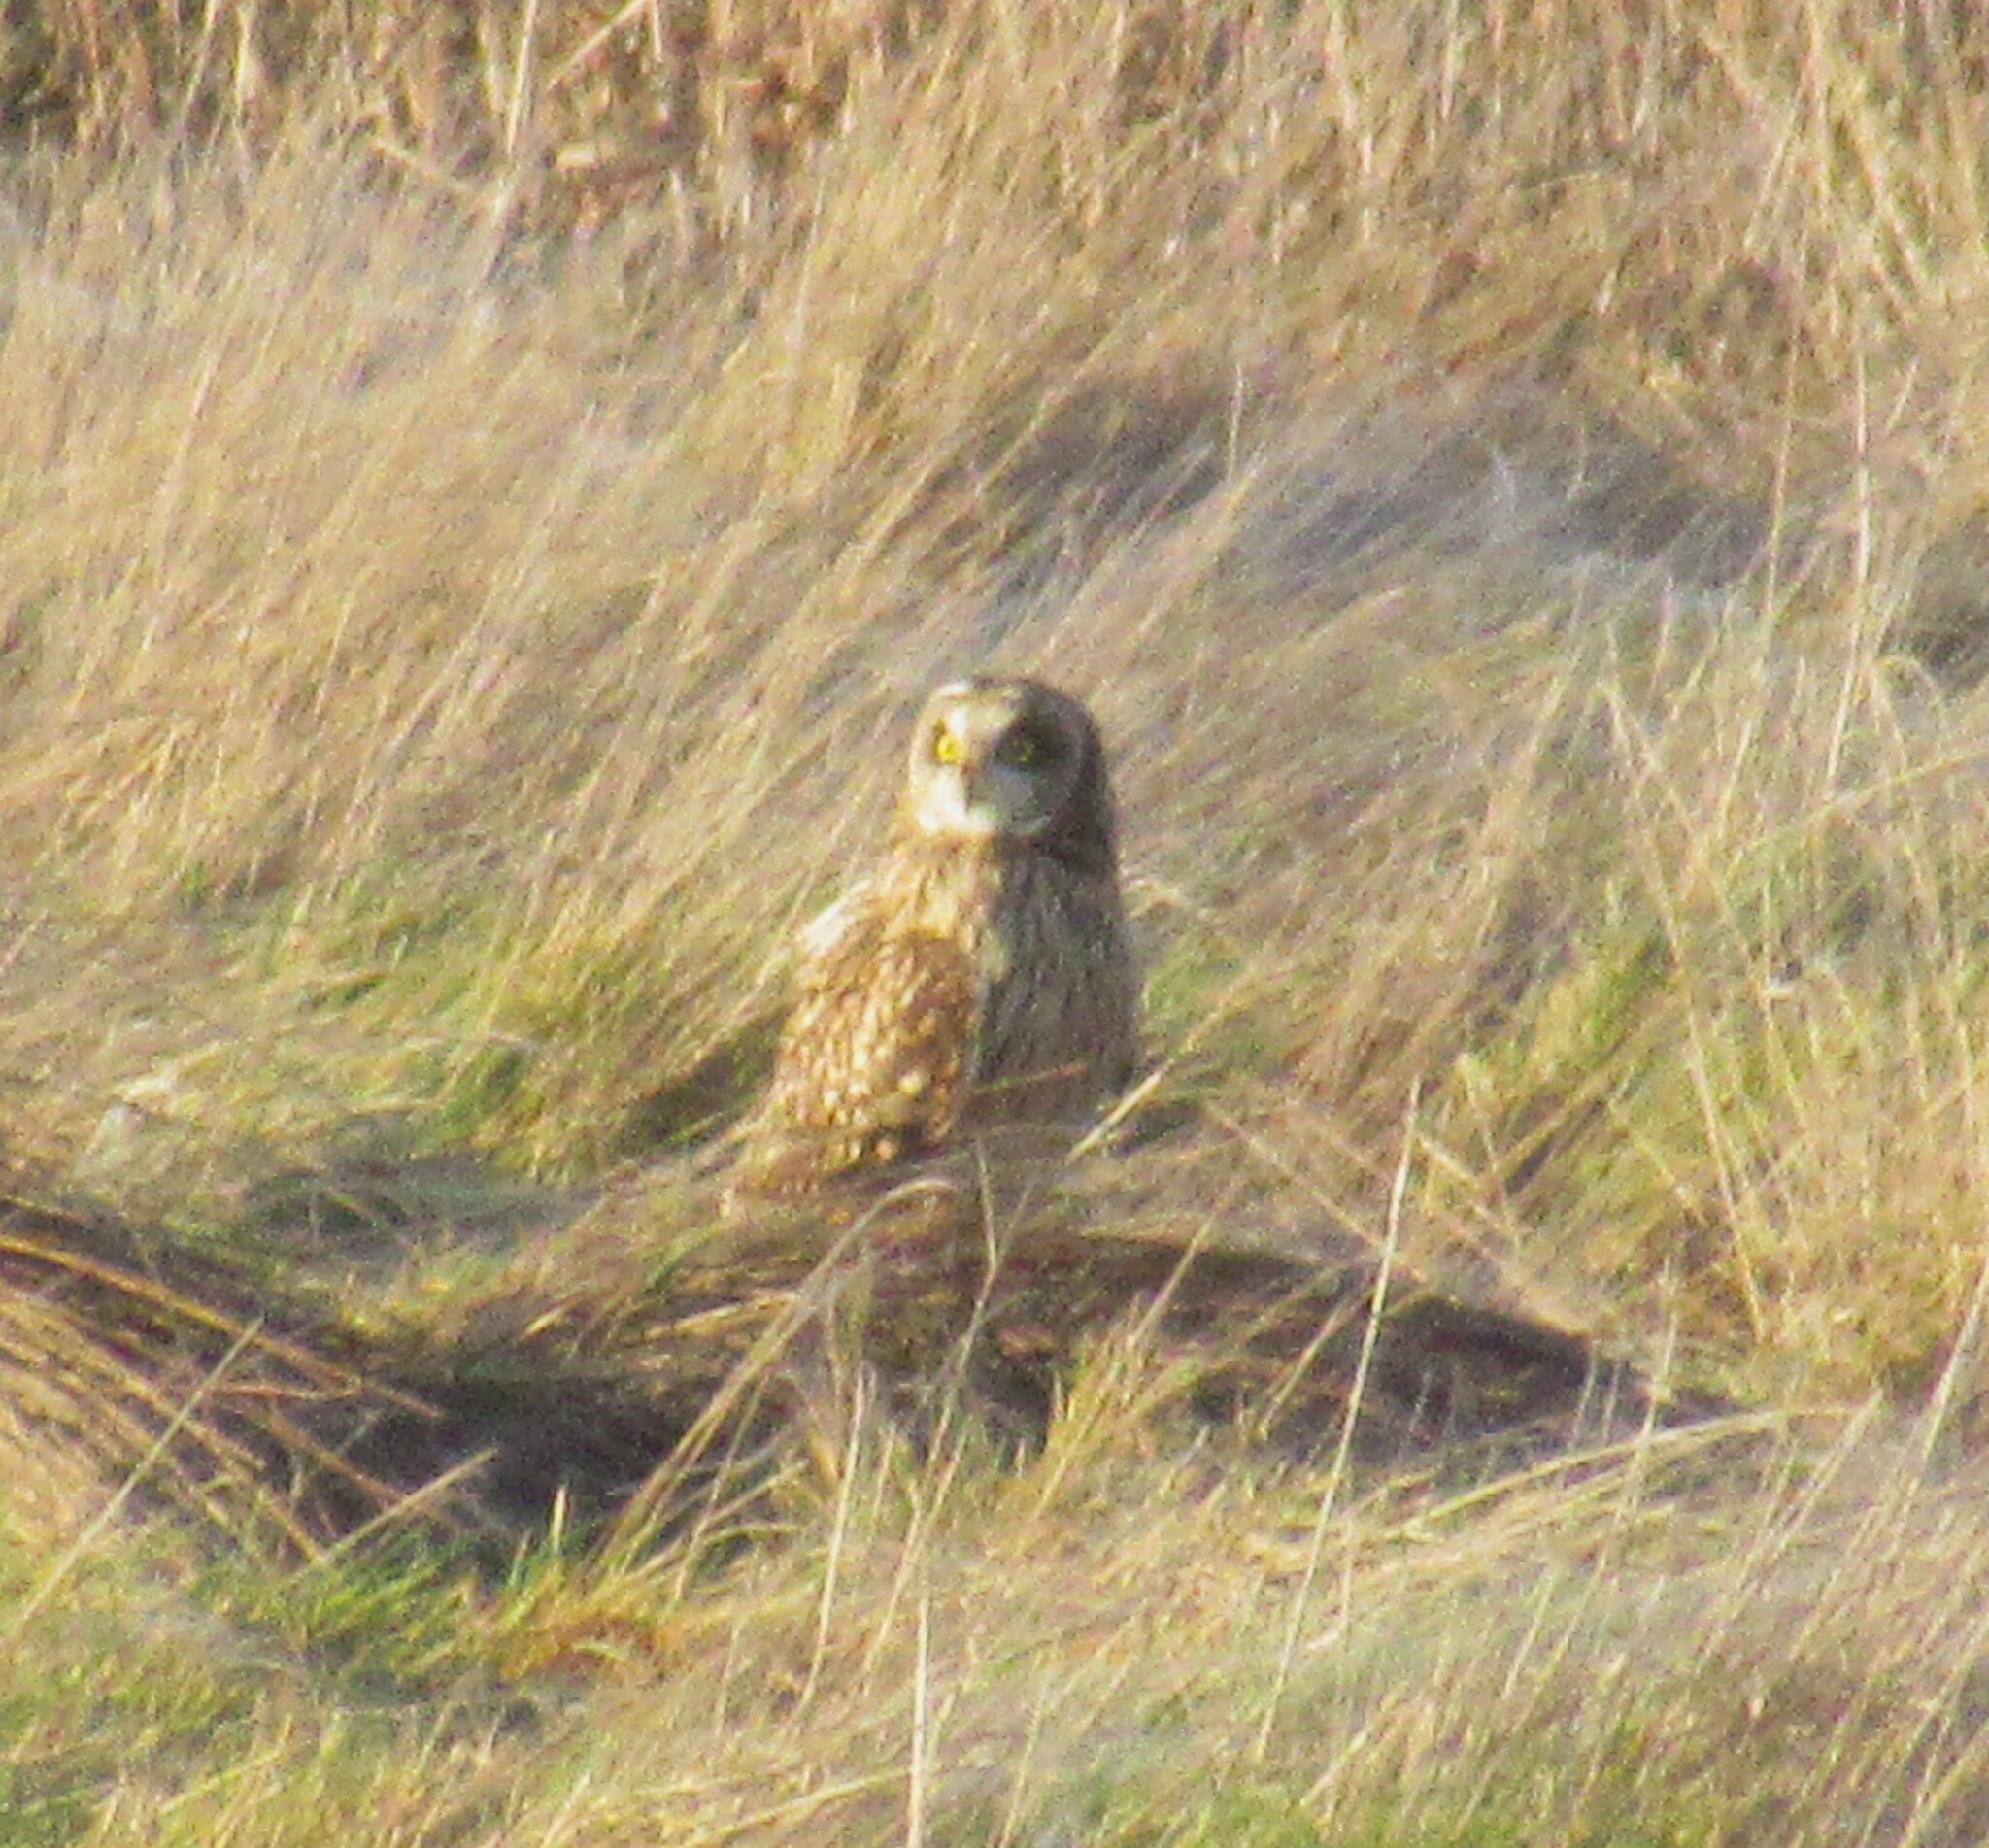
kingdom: Animalia
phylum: Chordata
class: Aves
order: Strigiformes
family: Strigidae
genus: Asio
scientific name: Asio flammeus
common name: Short-eared owl
